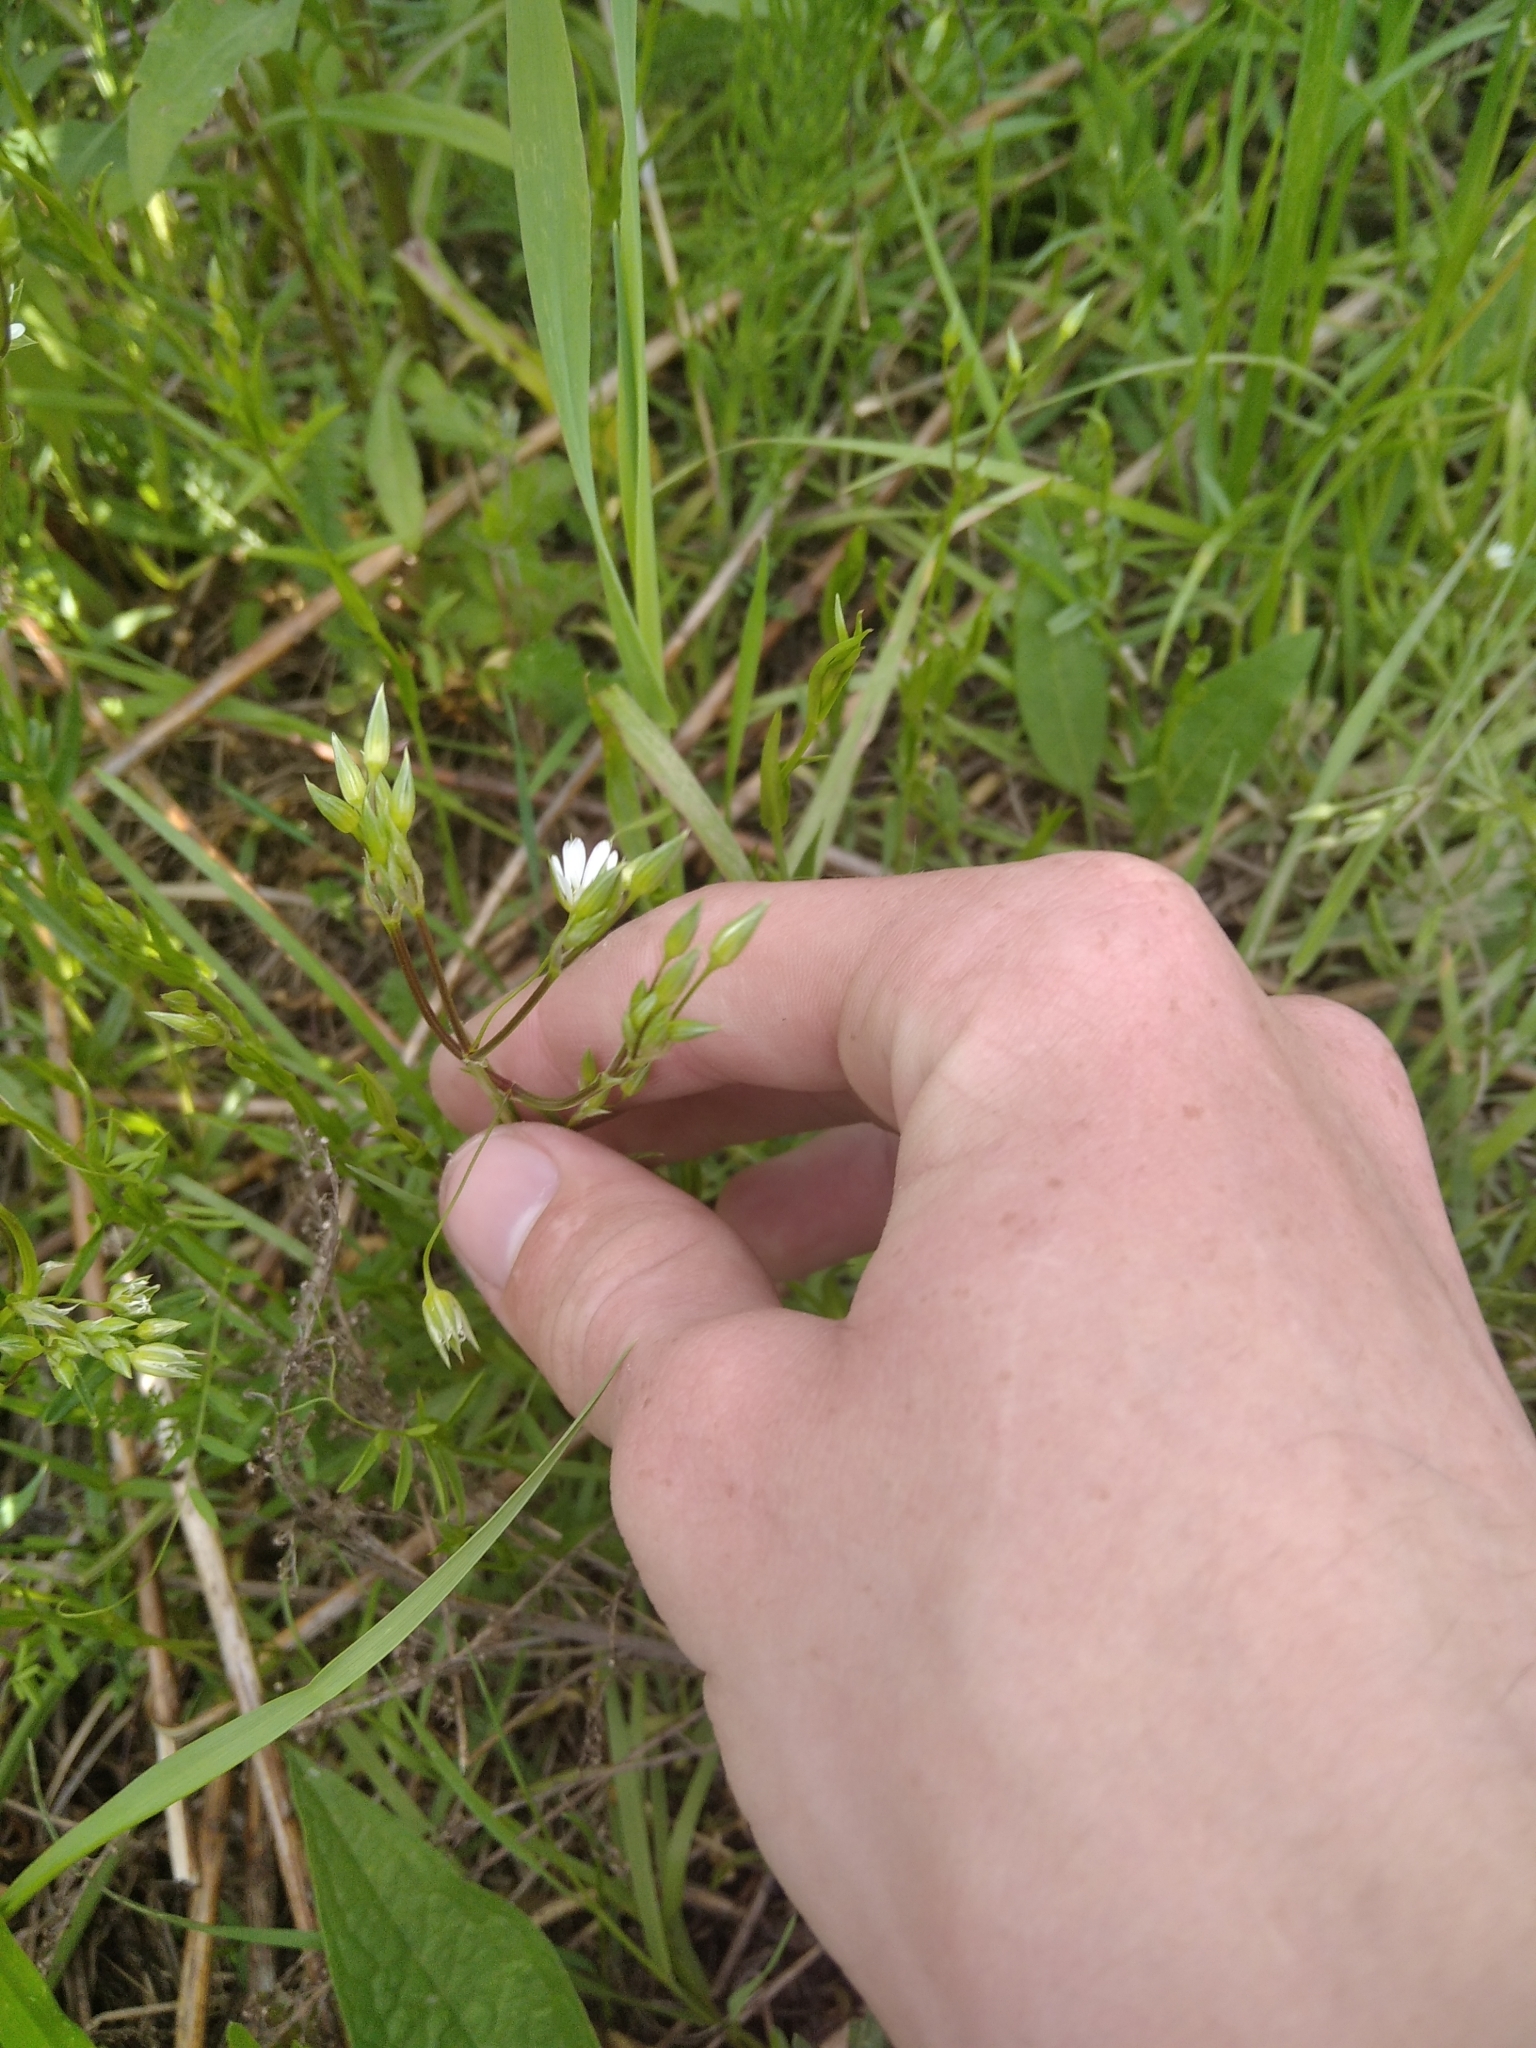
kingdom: Plantae
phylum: Tracheophyta
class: Magnoliopsida
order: Caryophyllales
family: Caryophyllaceae
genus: Stellaria
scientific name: Stellaria graminea
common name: Grass-like starwort
